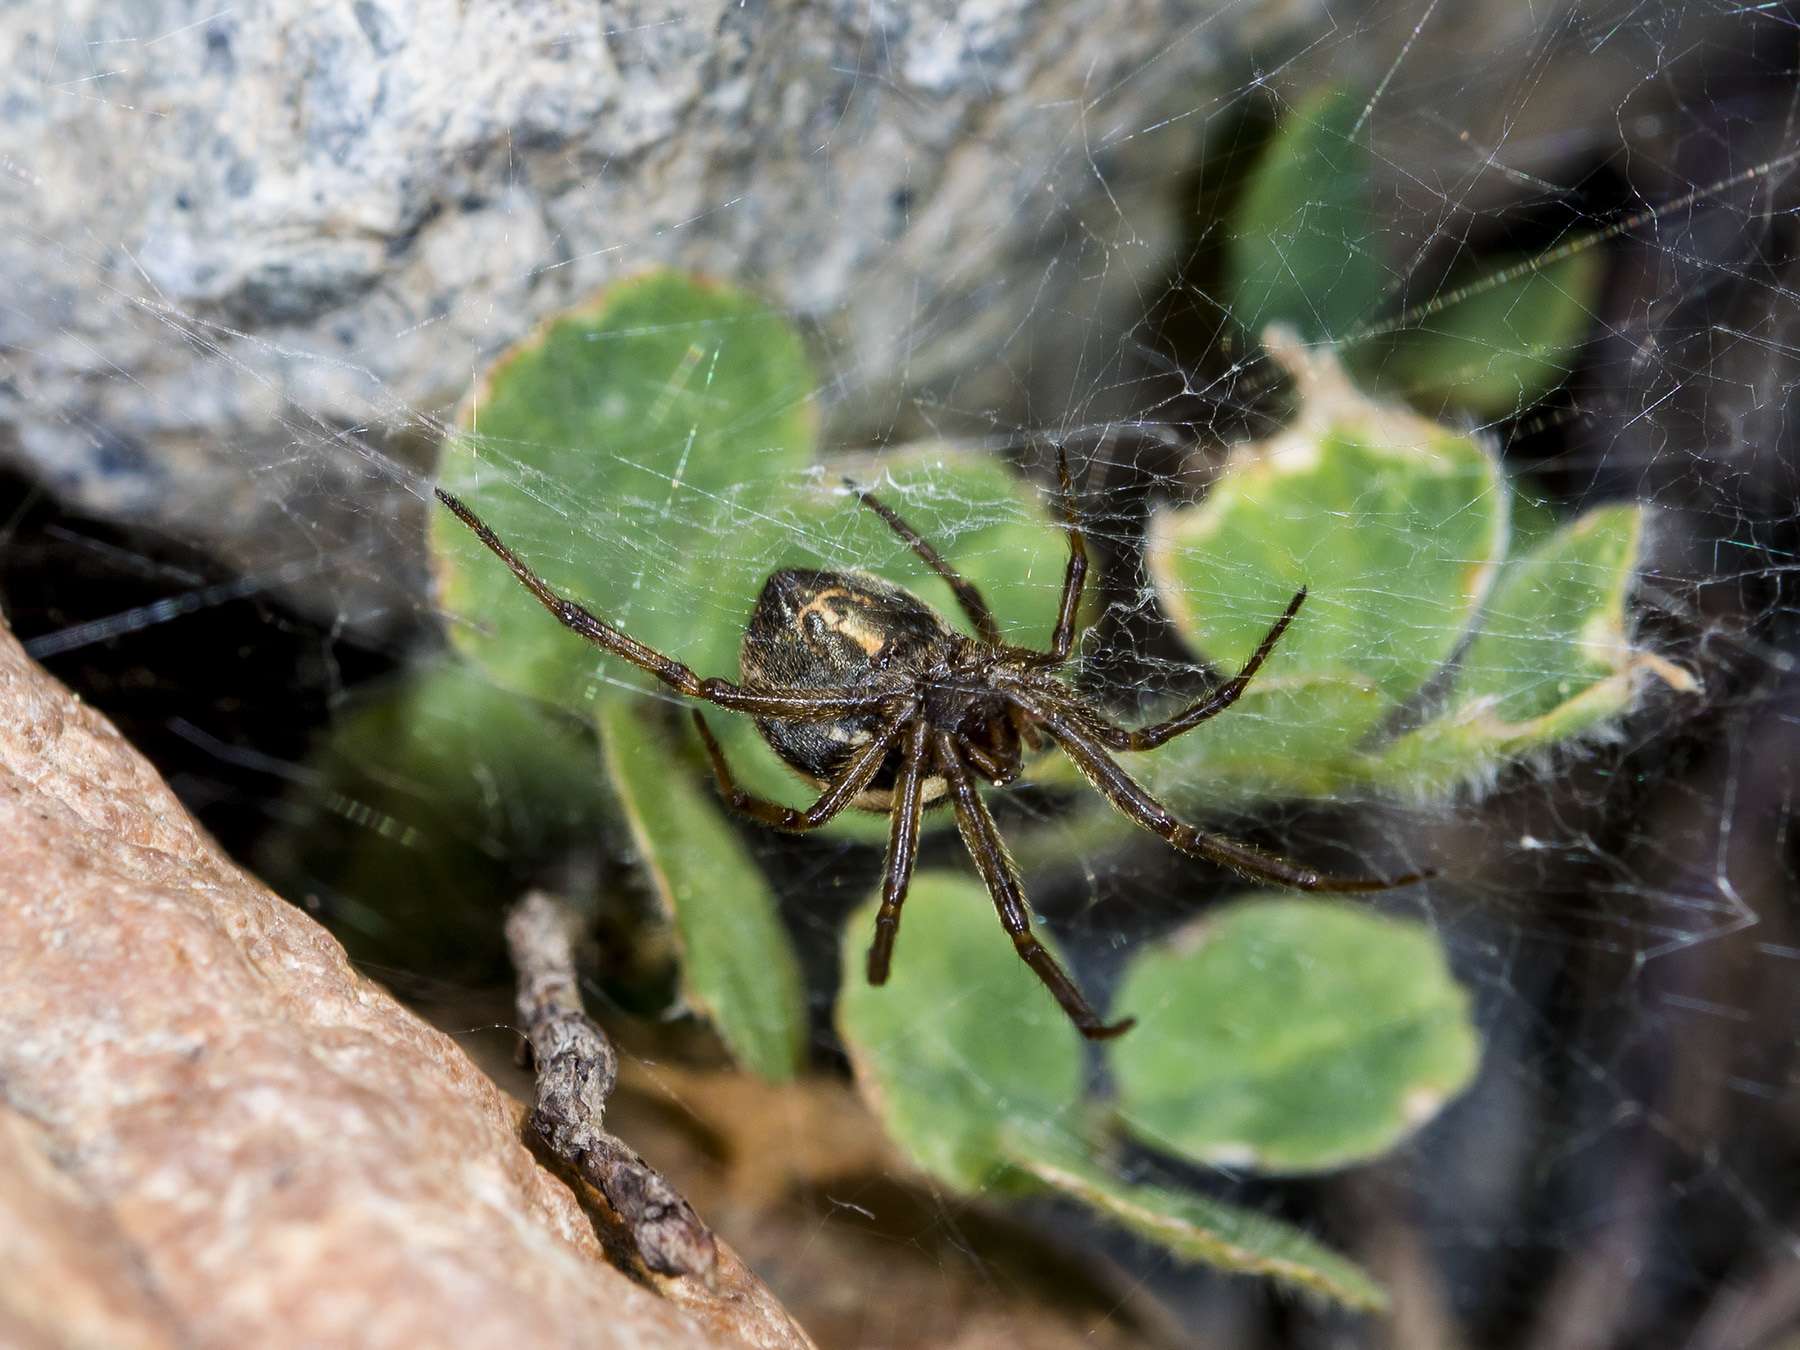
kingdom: Animalia
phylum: Arthropoda
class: Arachnida
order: Araneae
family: Theridiidae
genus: Steatoda
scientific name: Steatoda albomaculata
